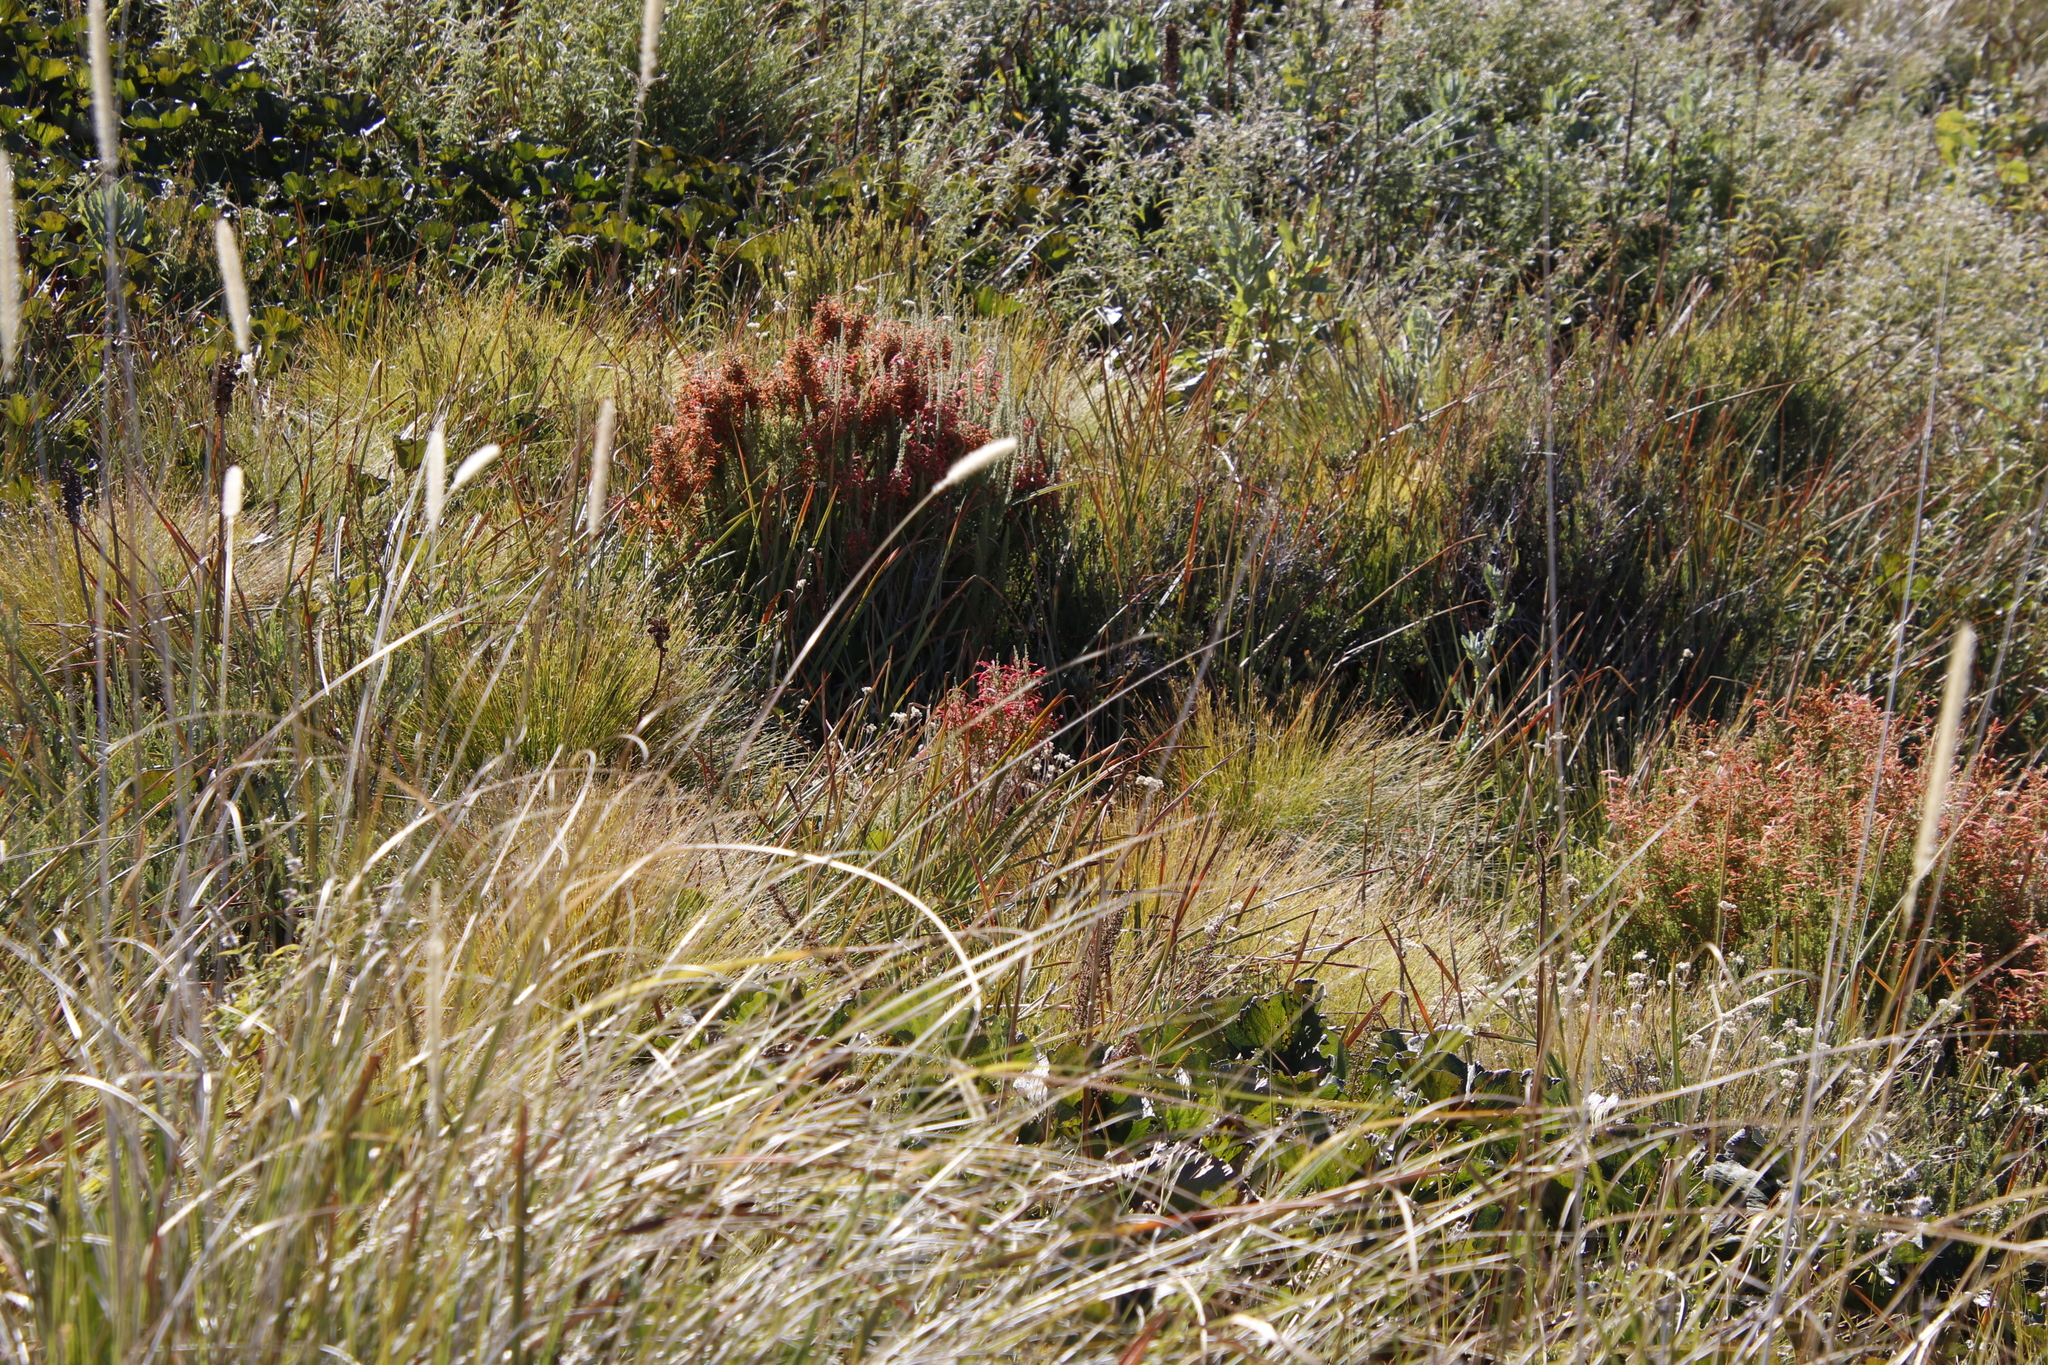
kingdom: Plantae
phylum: Tracheophyta
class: Magnoliopsida
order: Ericales
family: Ericaceae
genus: Erica
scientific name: Erica curviflora
